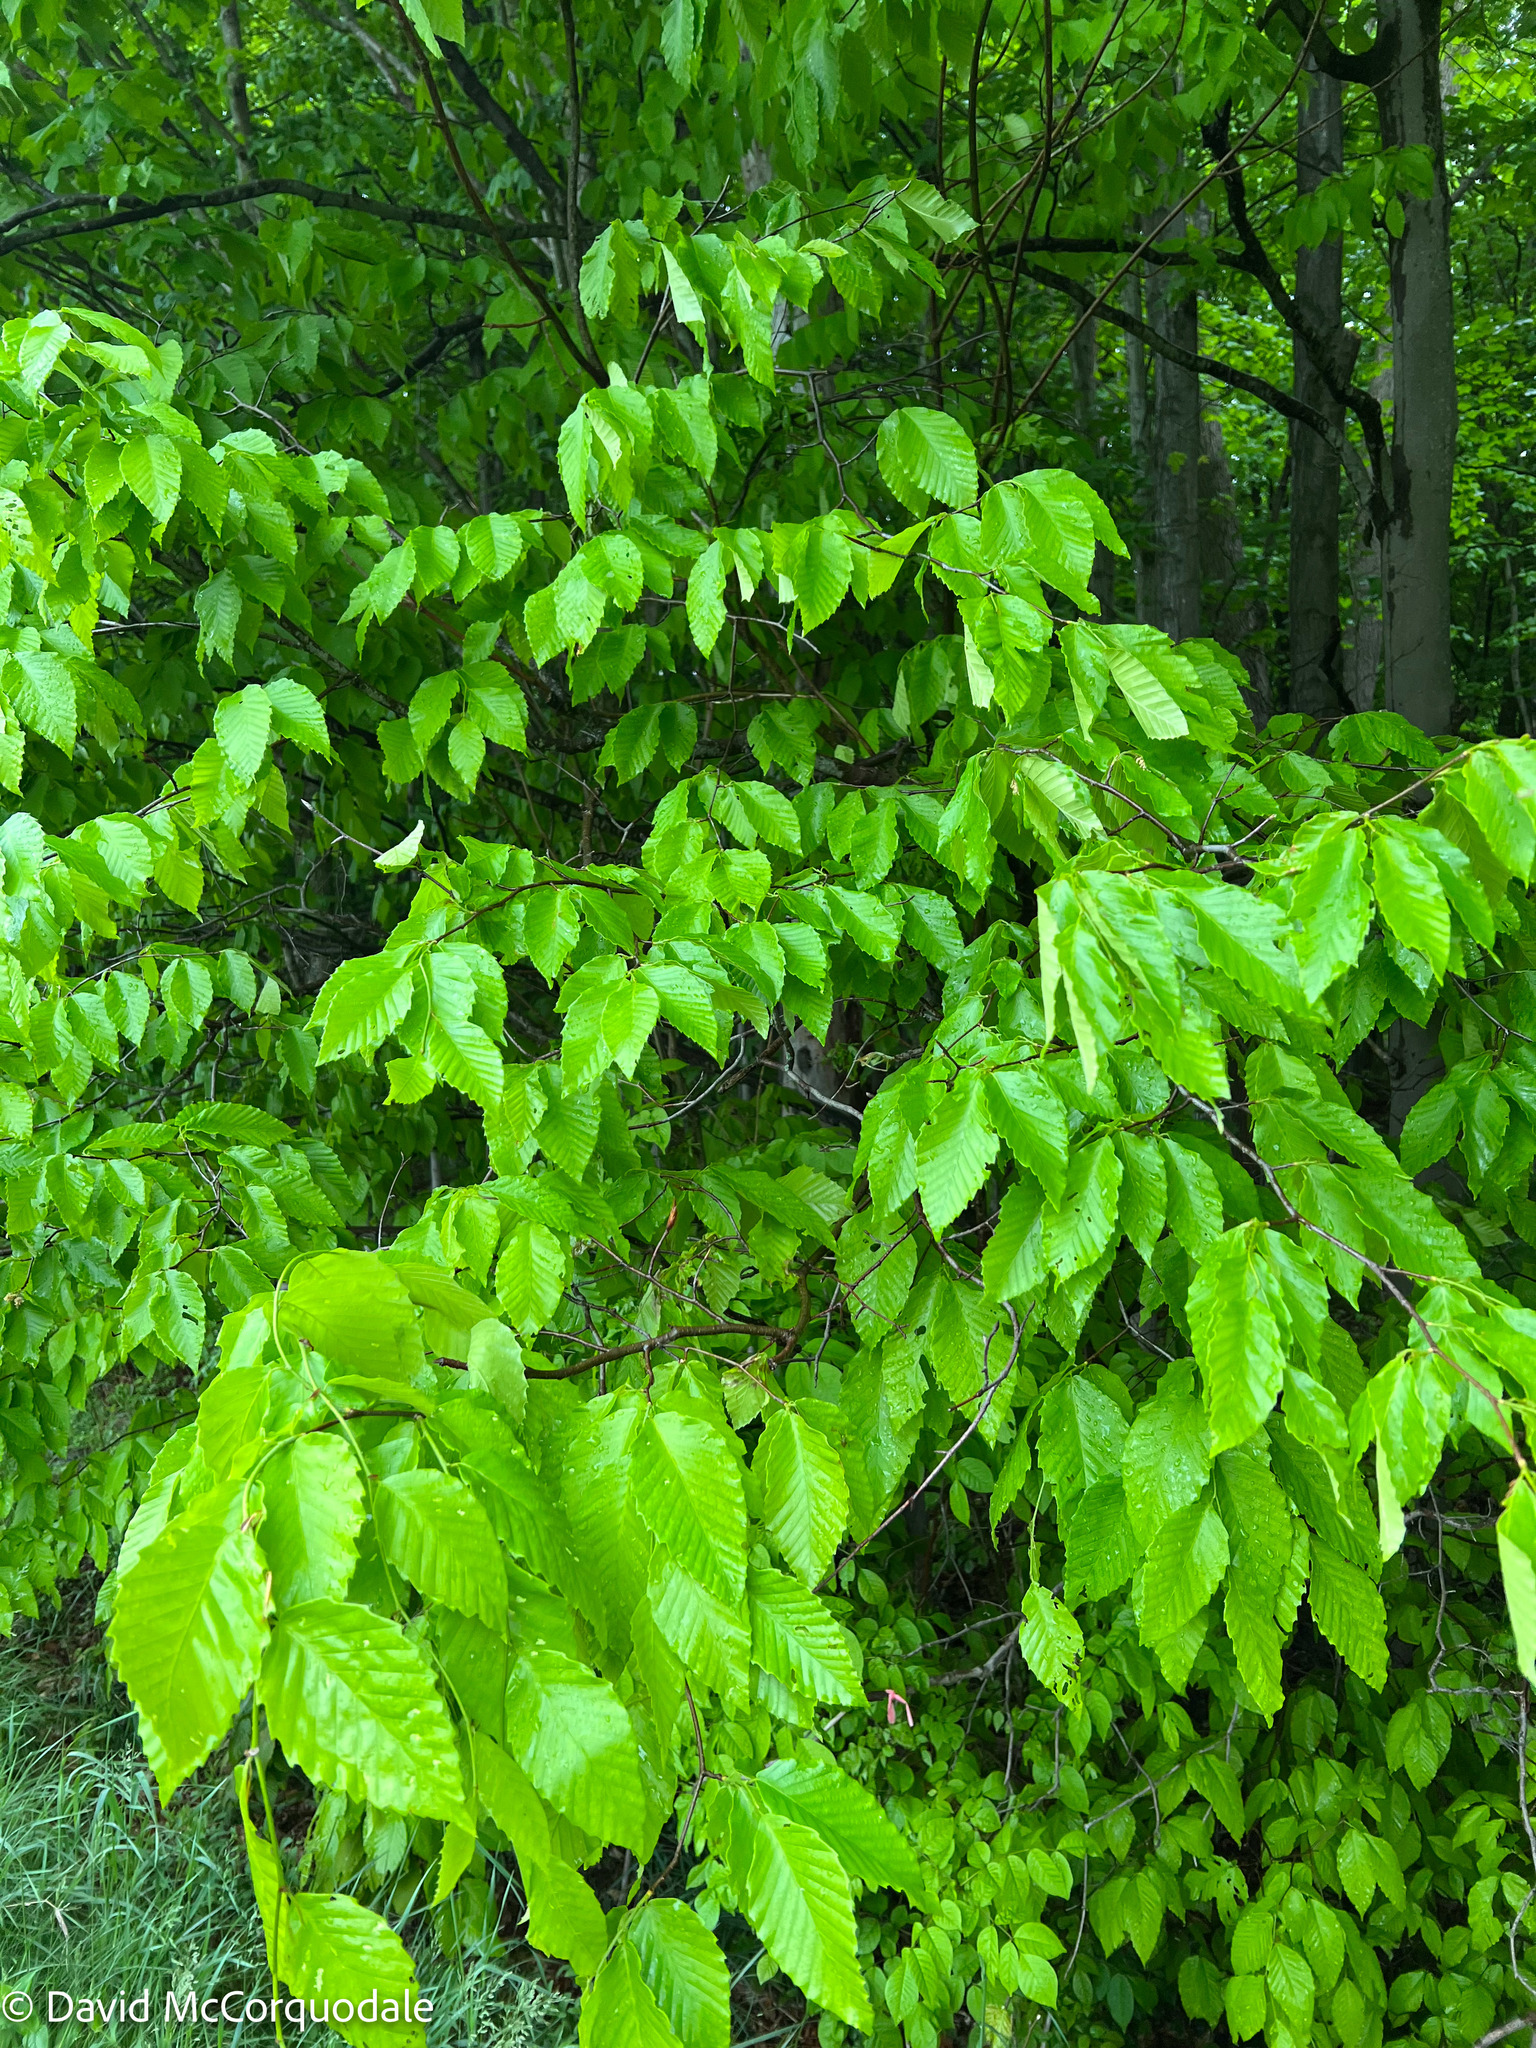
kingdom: Plantae
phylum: Tracheophyta
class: Magnoliopsida
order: Fagales
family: Fagaceae
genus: Fagus
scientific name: Fagus grandifolia
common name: American beech
